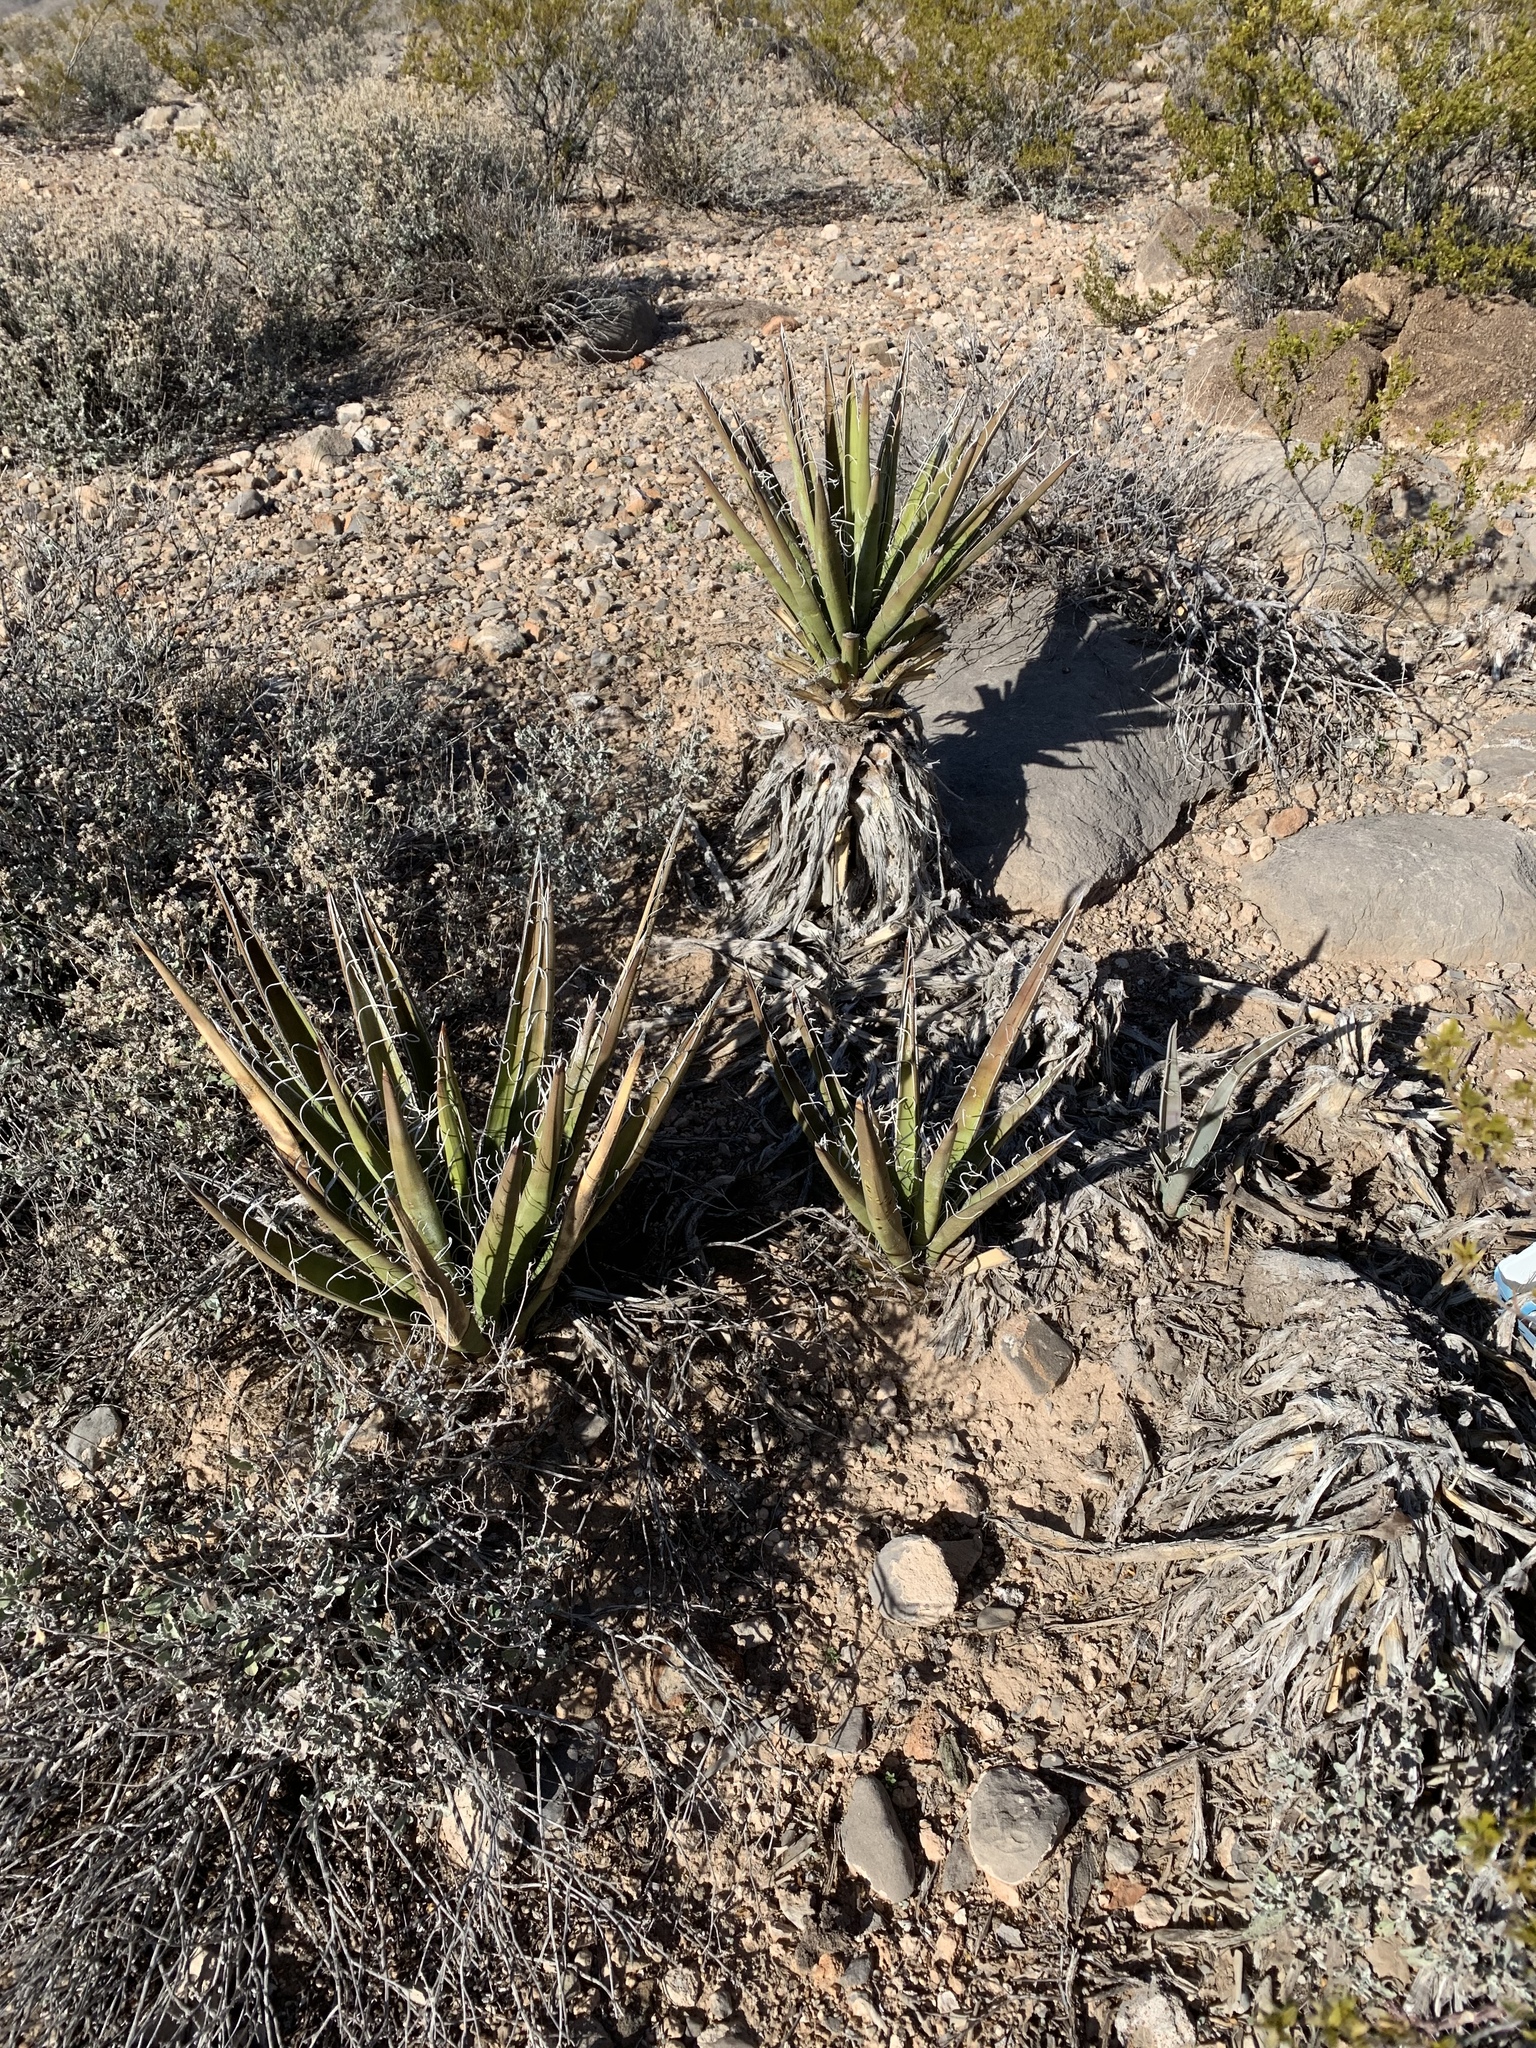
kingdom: Plantae
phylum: Tracheophyta
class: Liliopsida
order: Asparagales
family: Asparagaceae
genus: Yucca
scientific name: Yucca baccata
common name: Banana yucca
